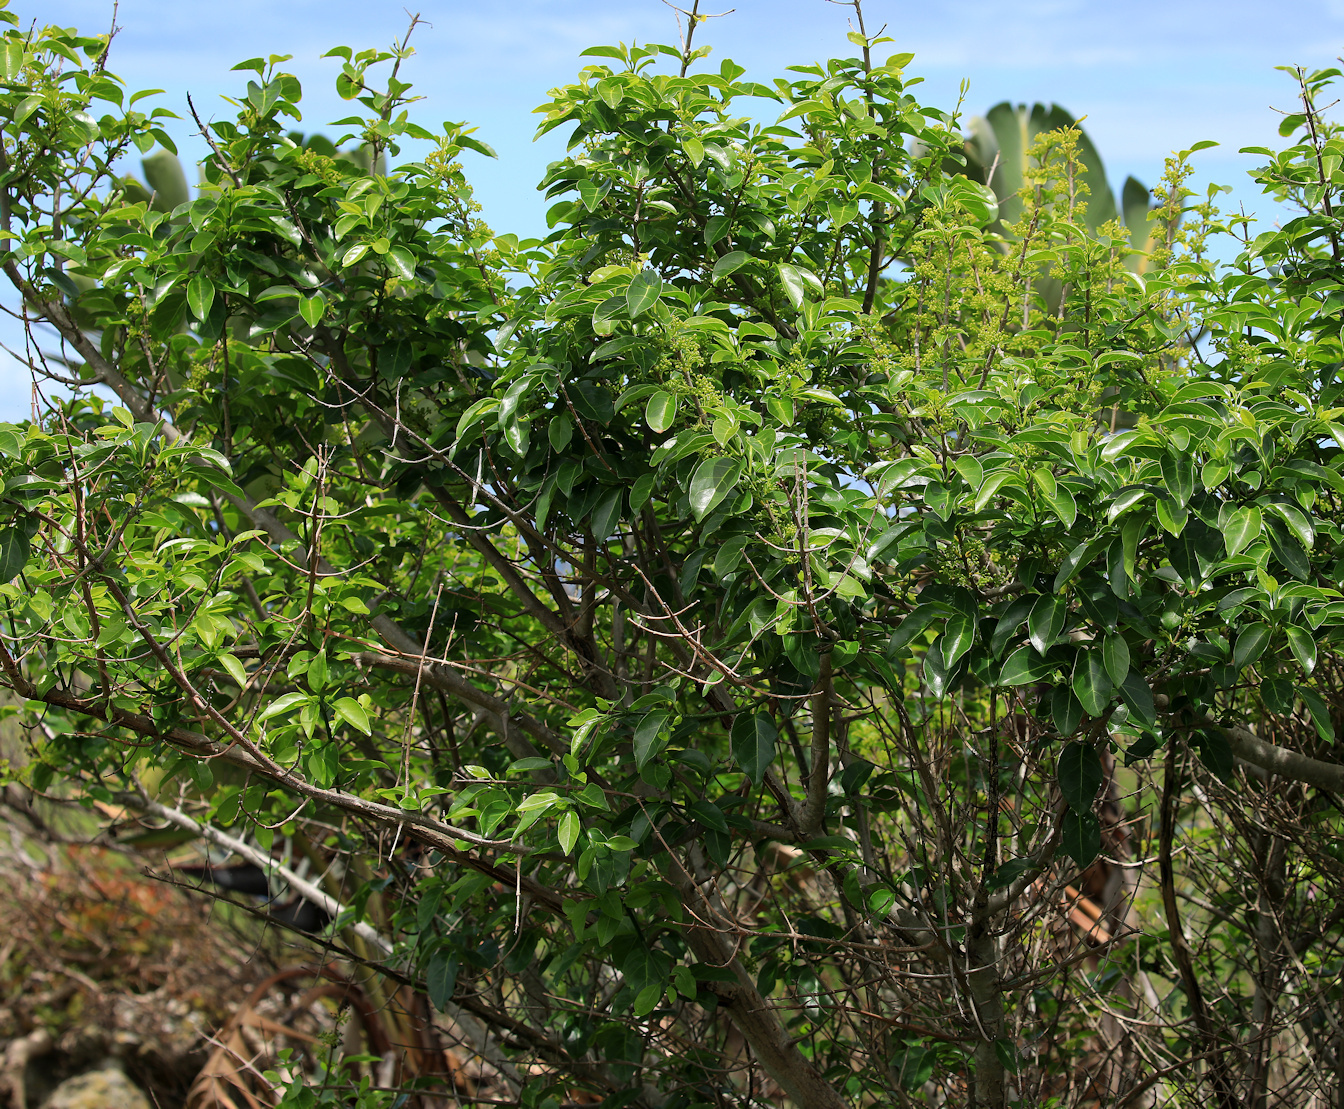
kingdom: Plantae
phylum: Tracheophyta
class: Magnoliopsida
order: Gentianales
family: Rubiaceae
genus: Canthium
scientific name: Canthium inerme
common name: Unarmed turkey-berry
